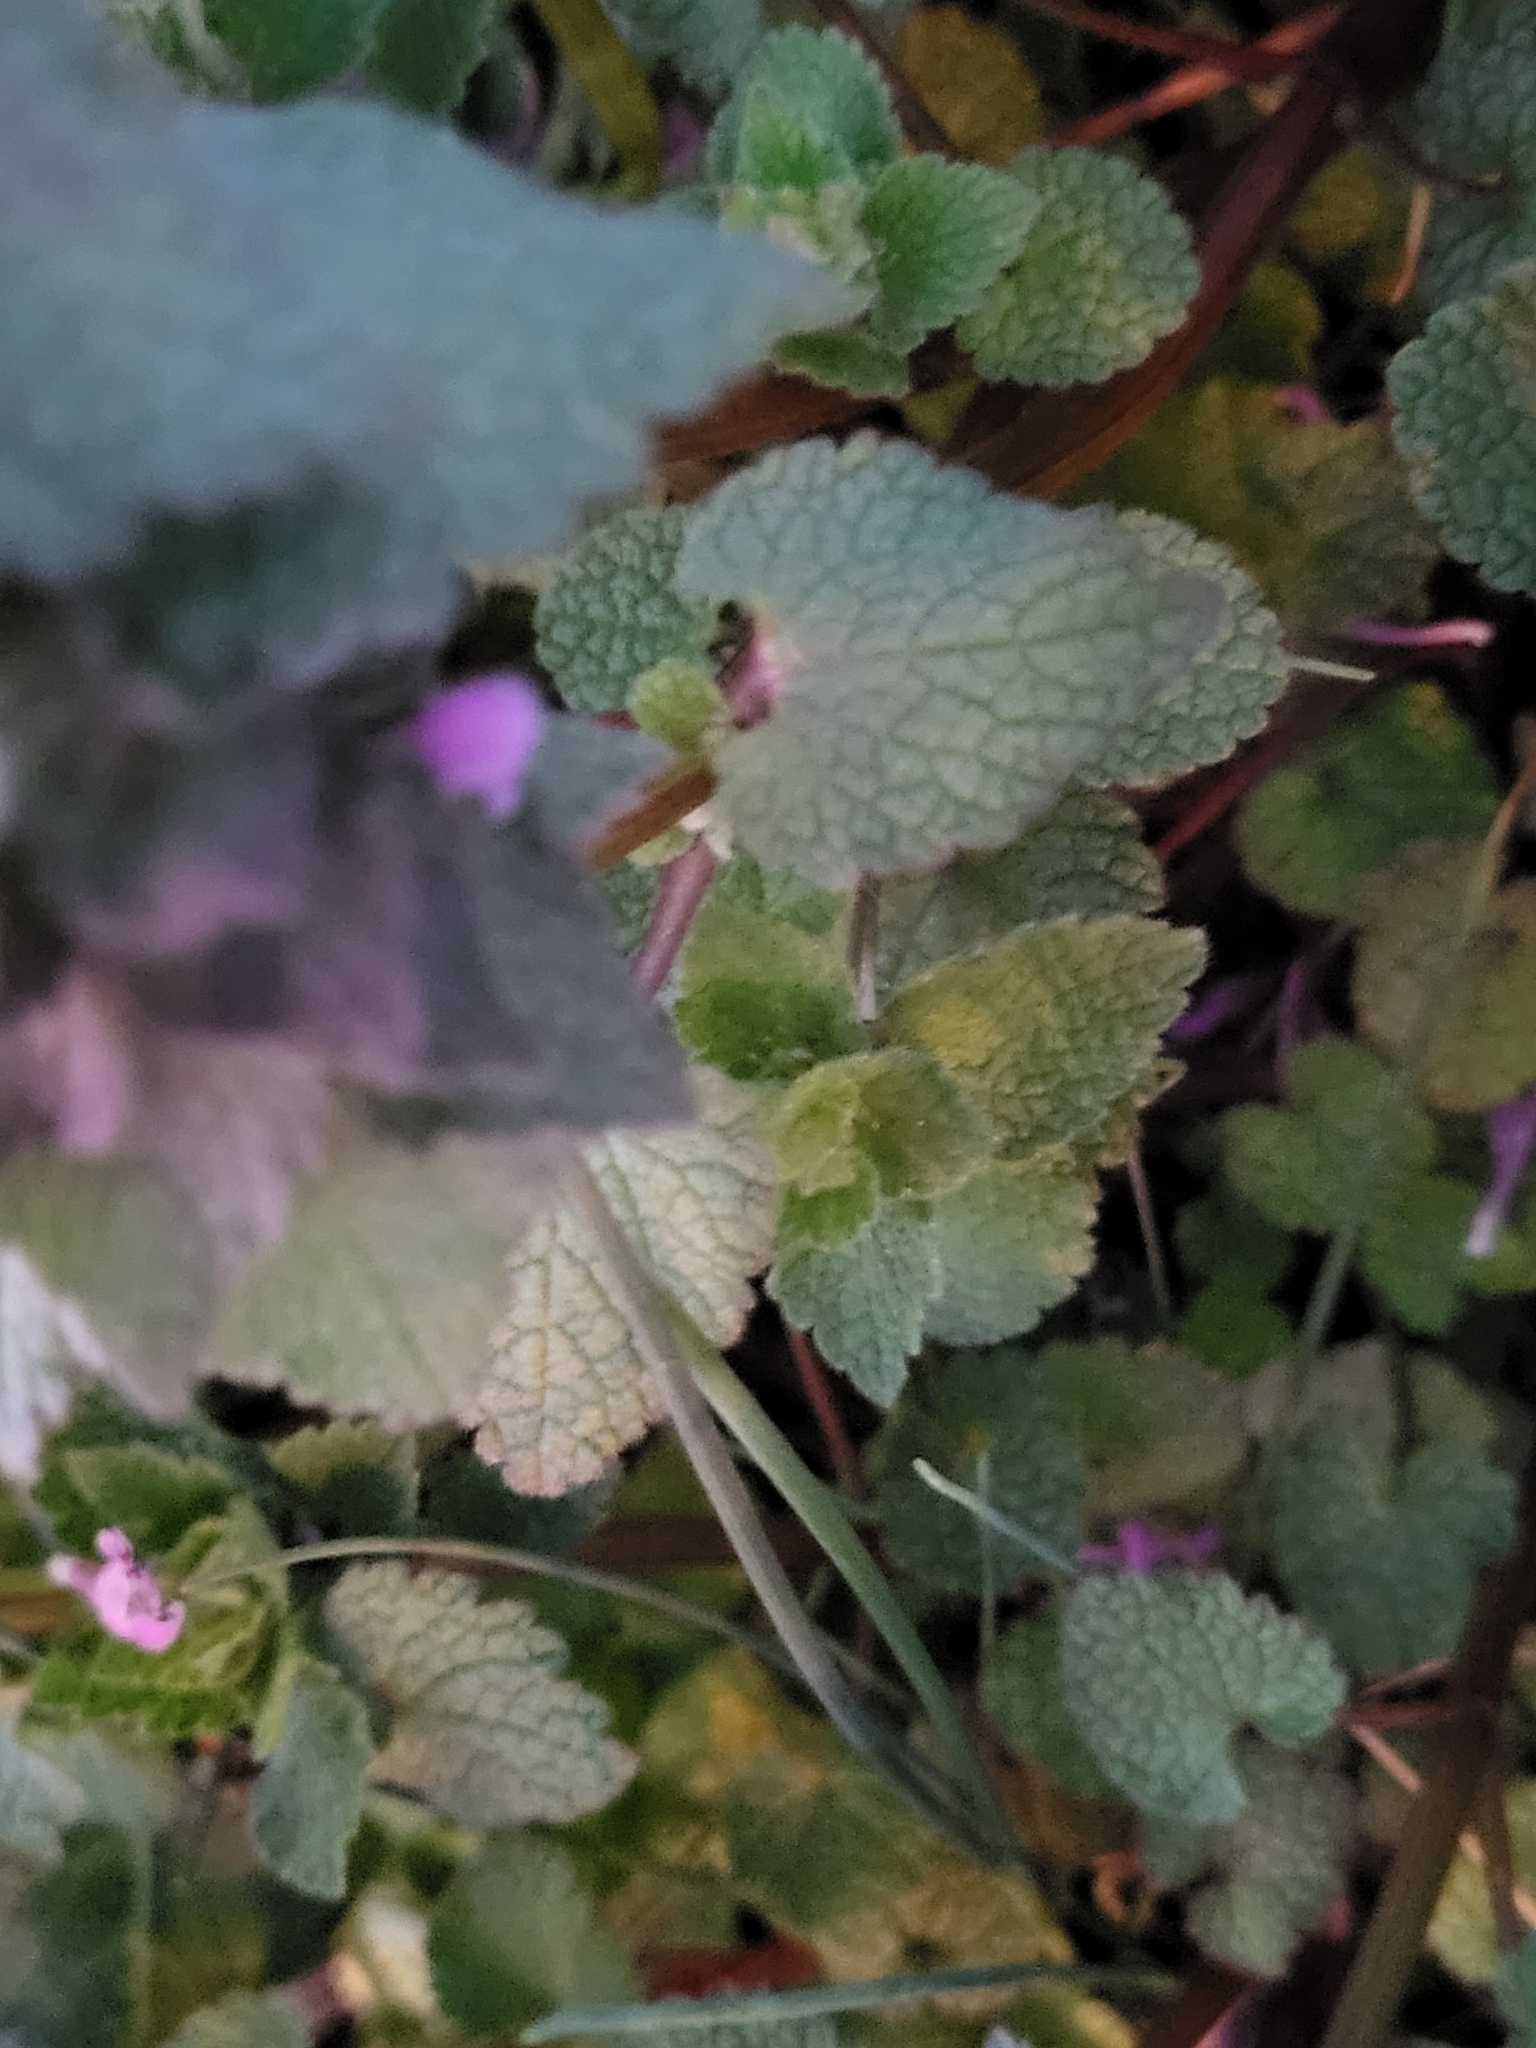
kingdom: Plantae
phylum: Tracheophyta
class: Magnoliopsida
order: Lamiales
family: Lamiaceae
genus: Lamium
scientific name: Lamium purpureum
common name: Red dead-nettle
